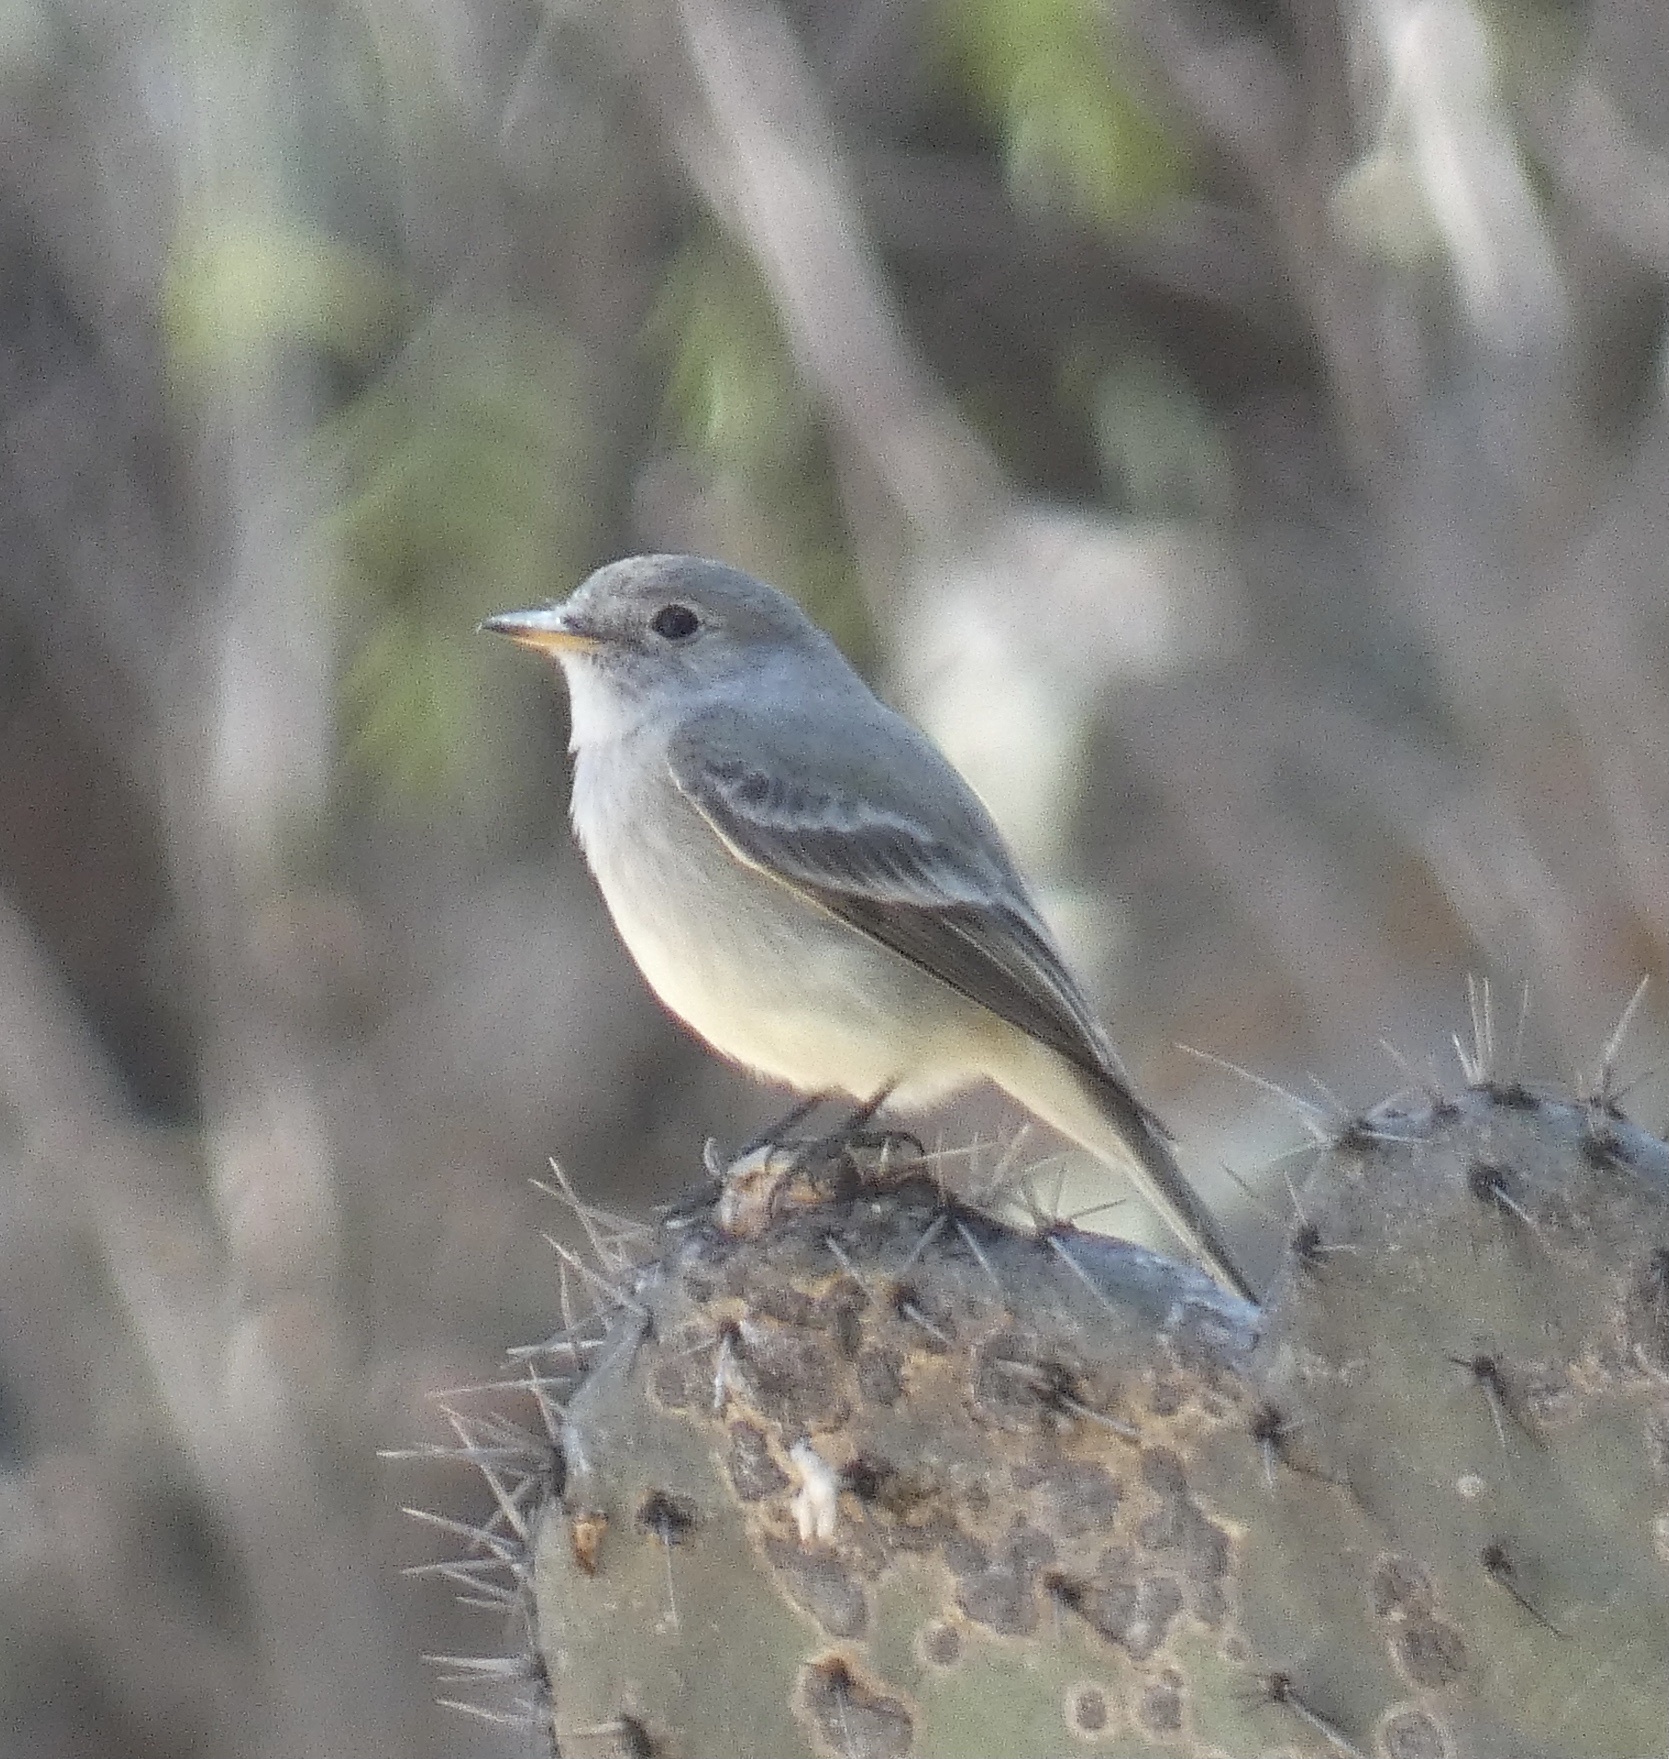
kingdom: Animalia
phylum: Chordata
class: Aves
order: Passeriformes
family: Tyrannidae
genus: Empidonax
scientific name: Empidonax wrightii
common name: Gray flycatcher
